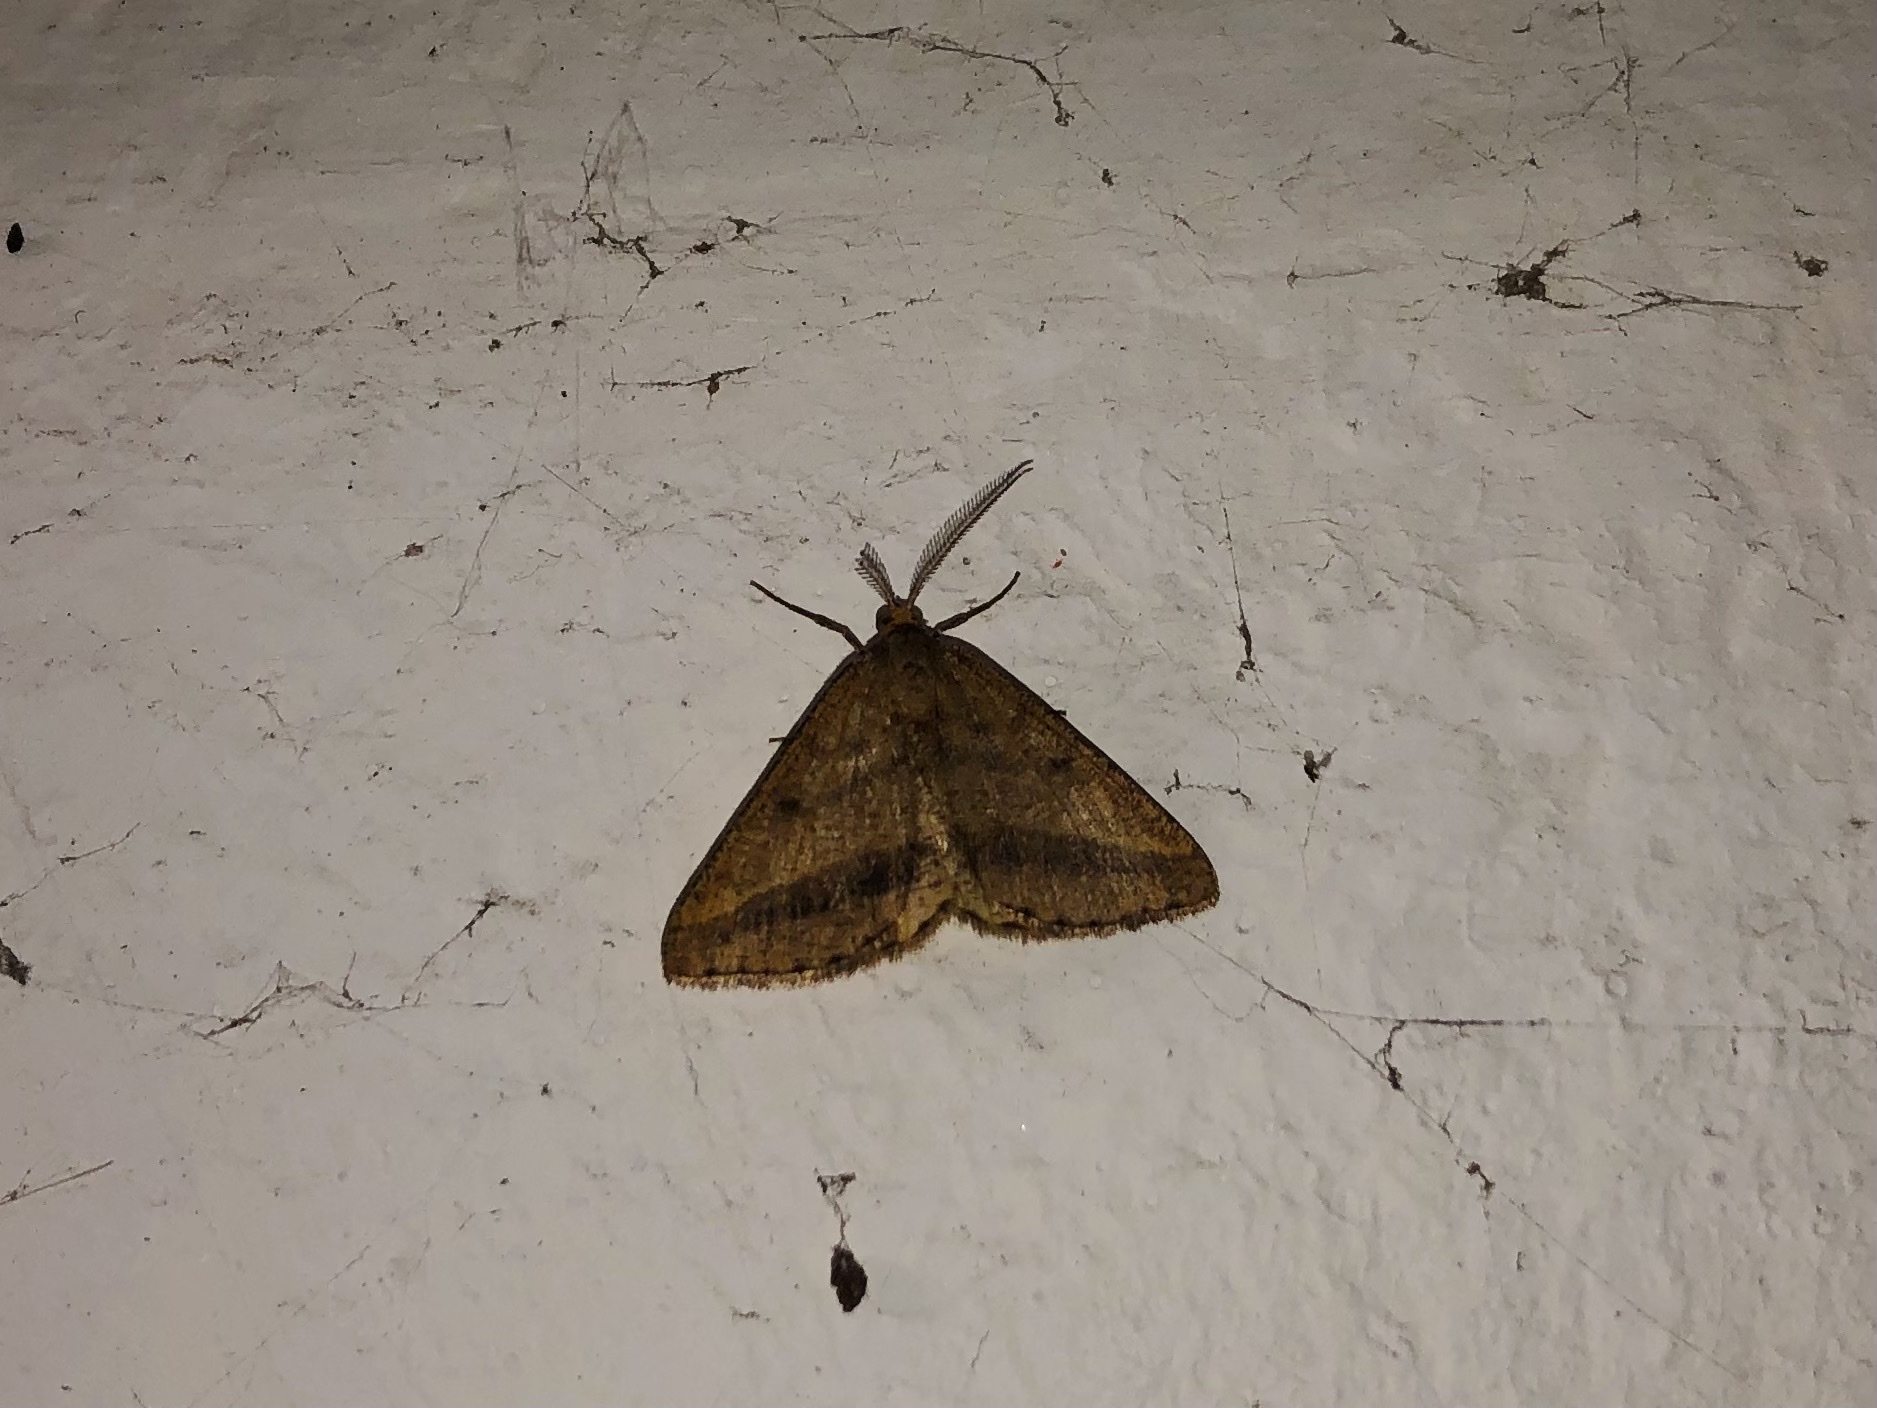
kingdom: Animalia
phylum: Arthropoda
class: Insecta
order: Lepidoptera
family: Geometridae
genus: Tephrina
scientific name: Tephrina arenacearia
